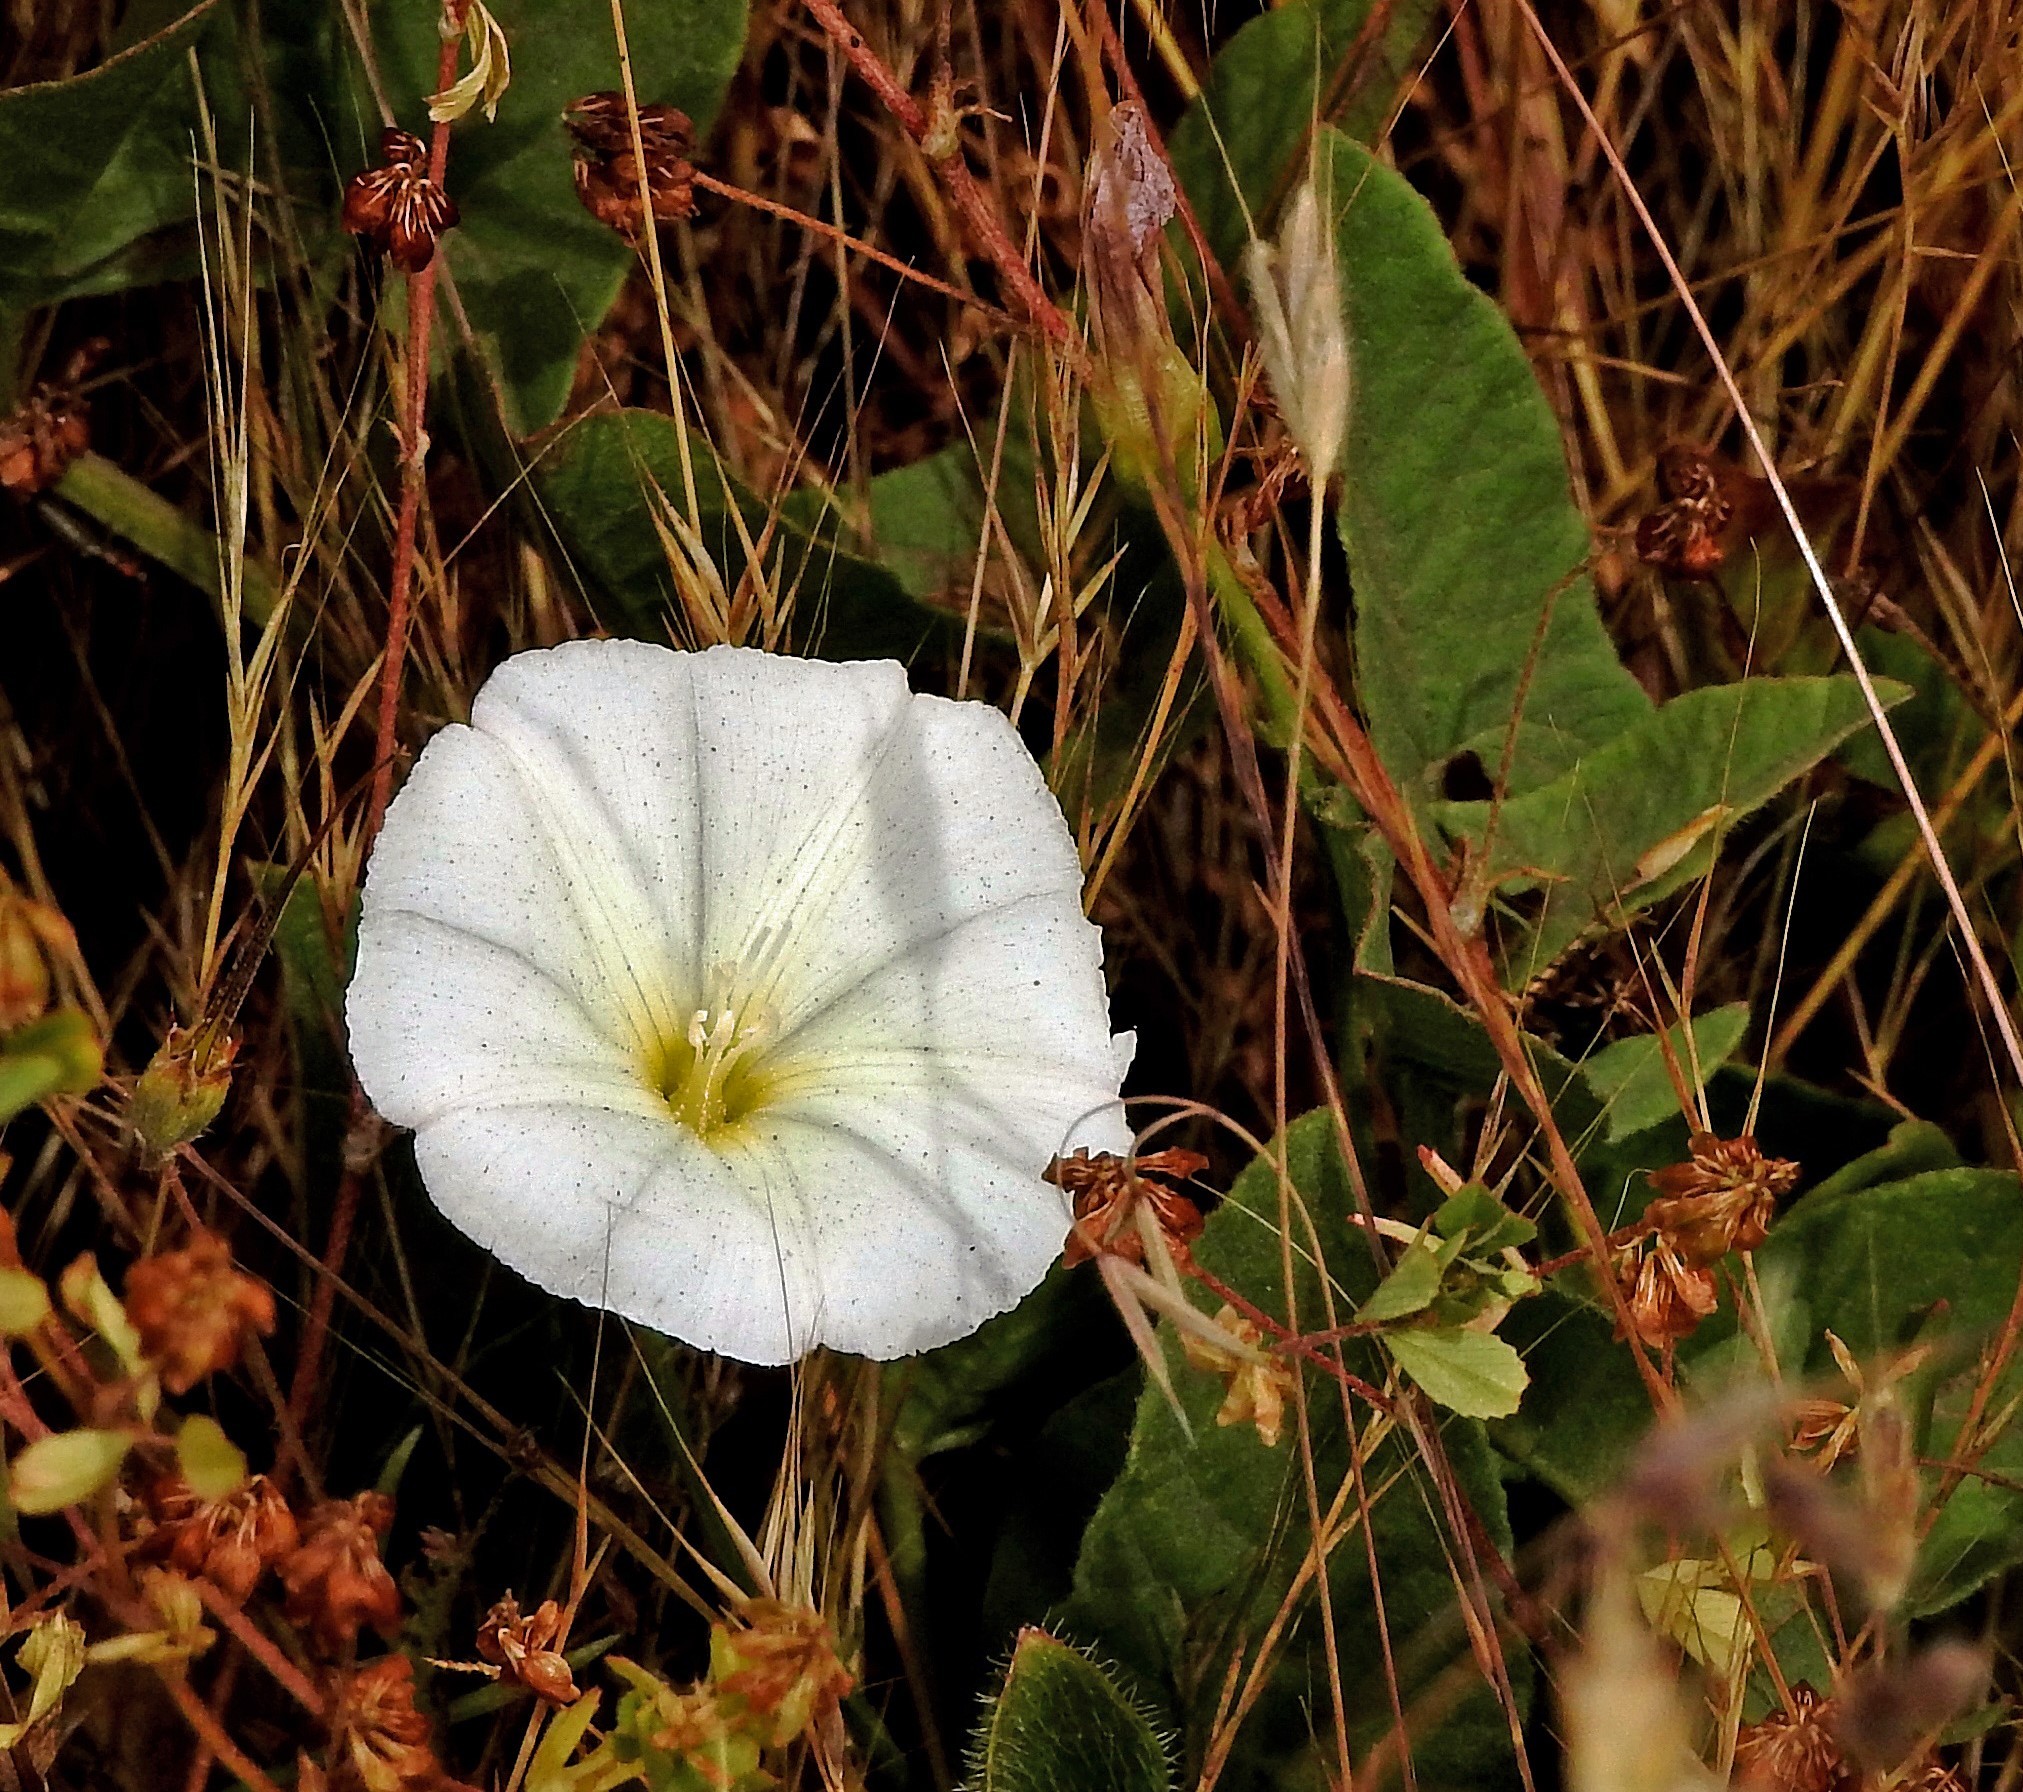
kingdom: Plantae
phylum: Tracheophyta
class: Magnoliopsida
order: Solanales
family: Convolvulaceae
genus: Convolvulus
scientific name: Convolvulus arvensis
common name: Field bindweed
